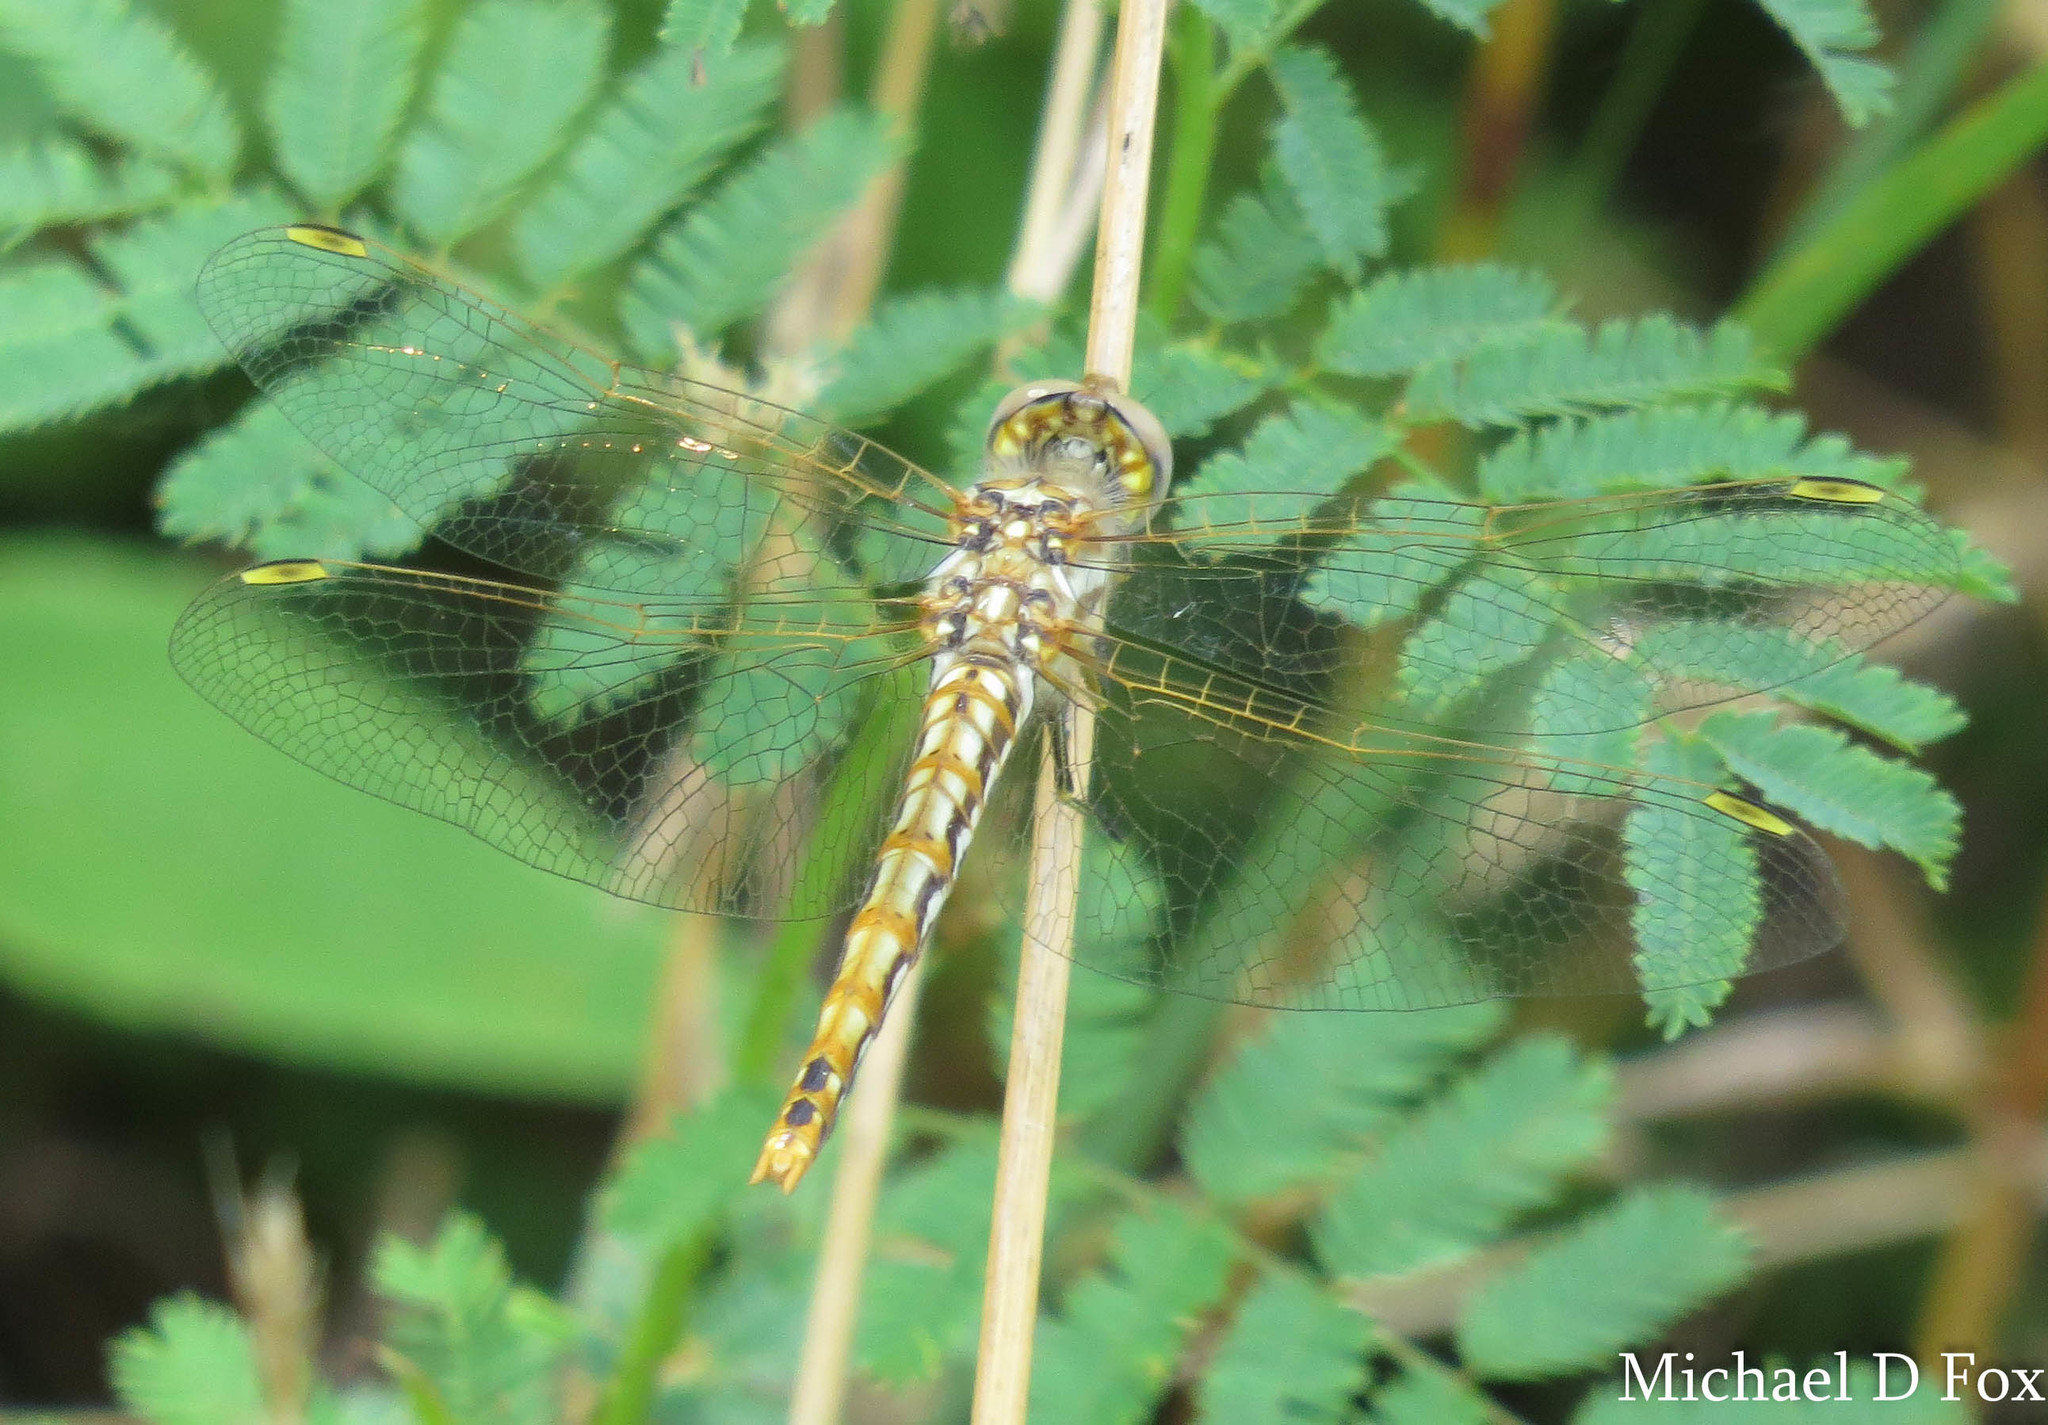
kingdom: Animalia
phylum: Arthropoda
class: Insecta
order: Odonata
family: Libellulidae
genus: Sympetrum
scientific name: Sympetrum corruptum
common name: Variegated meadowhawk
